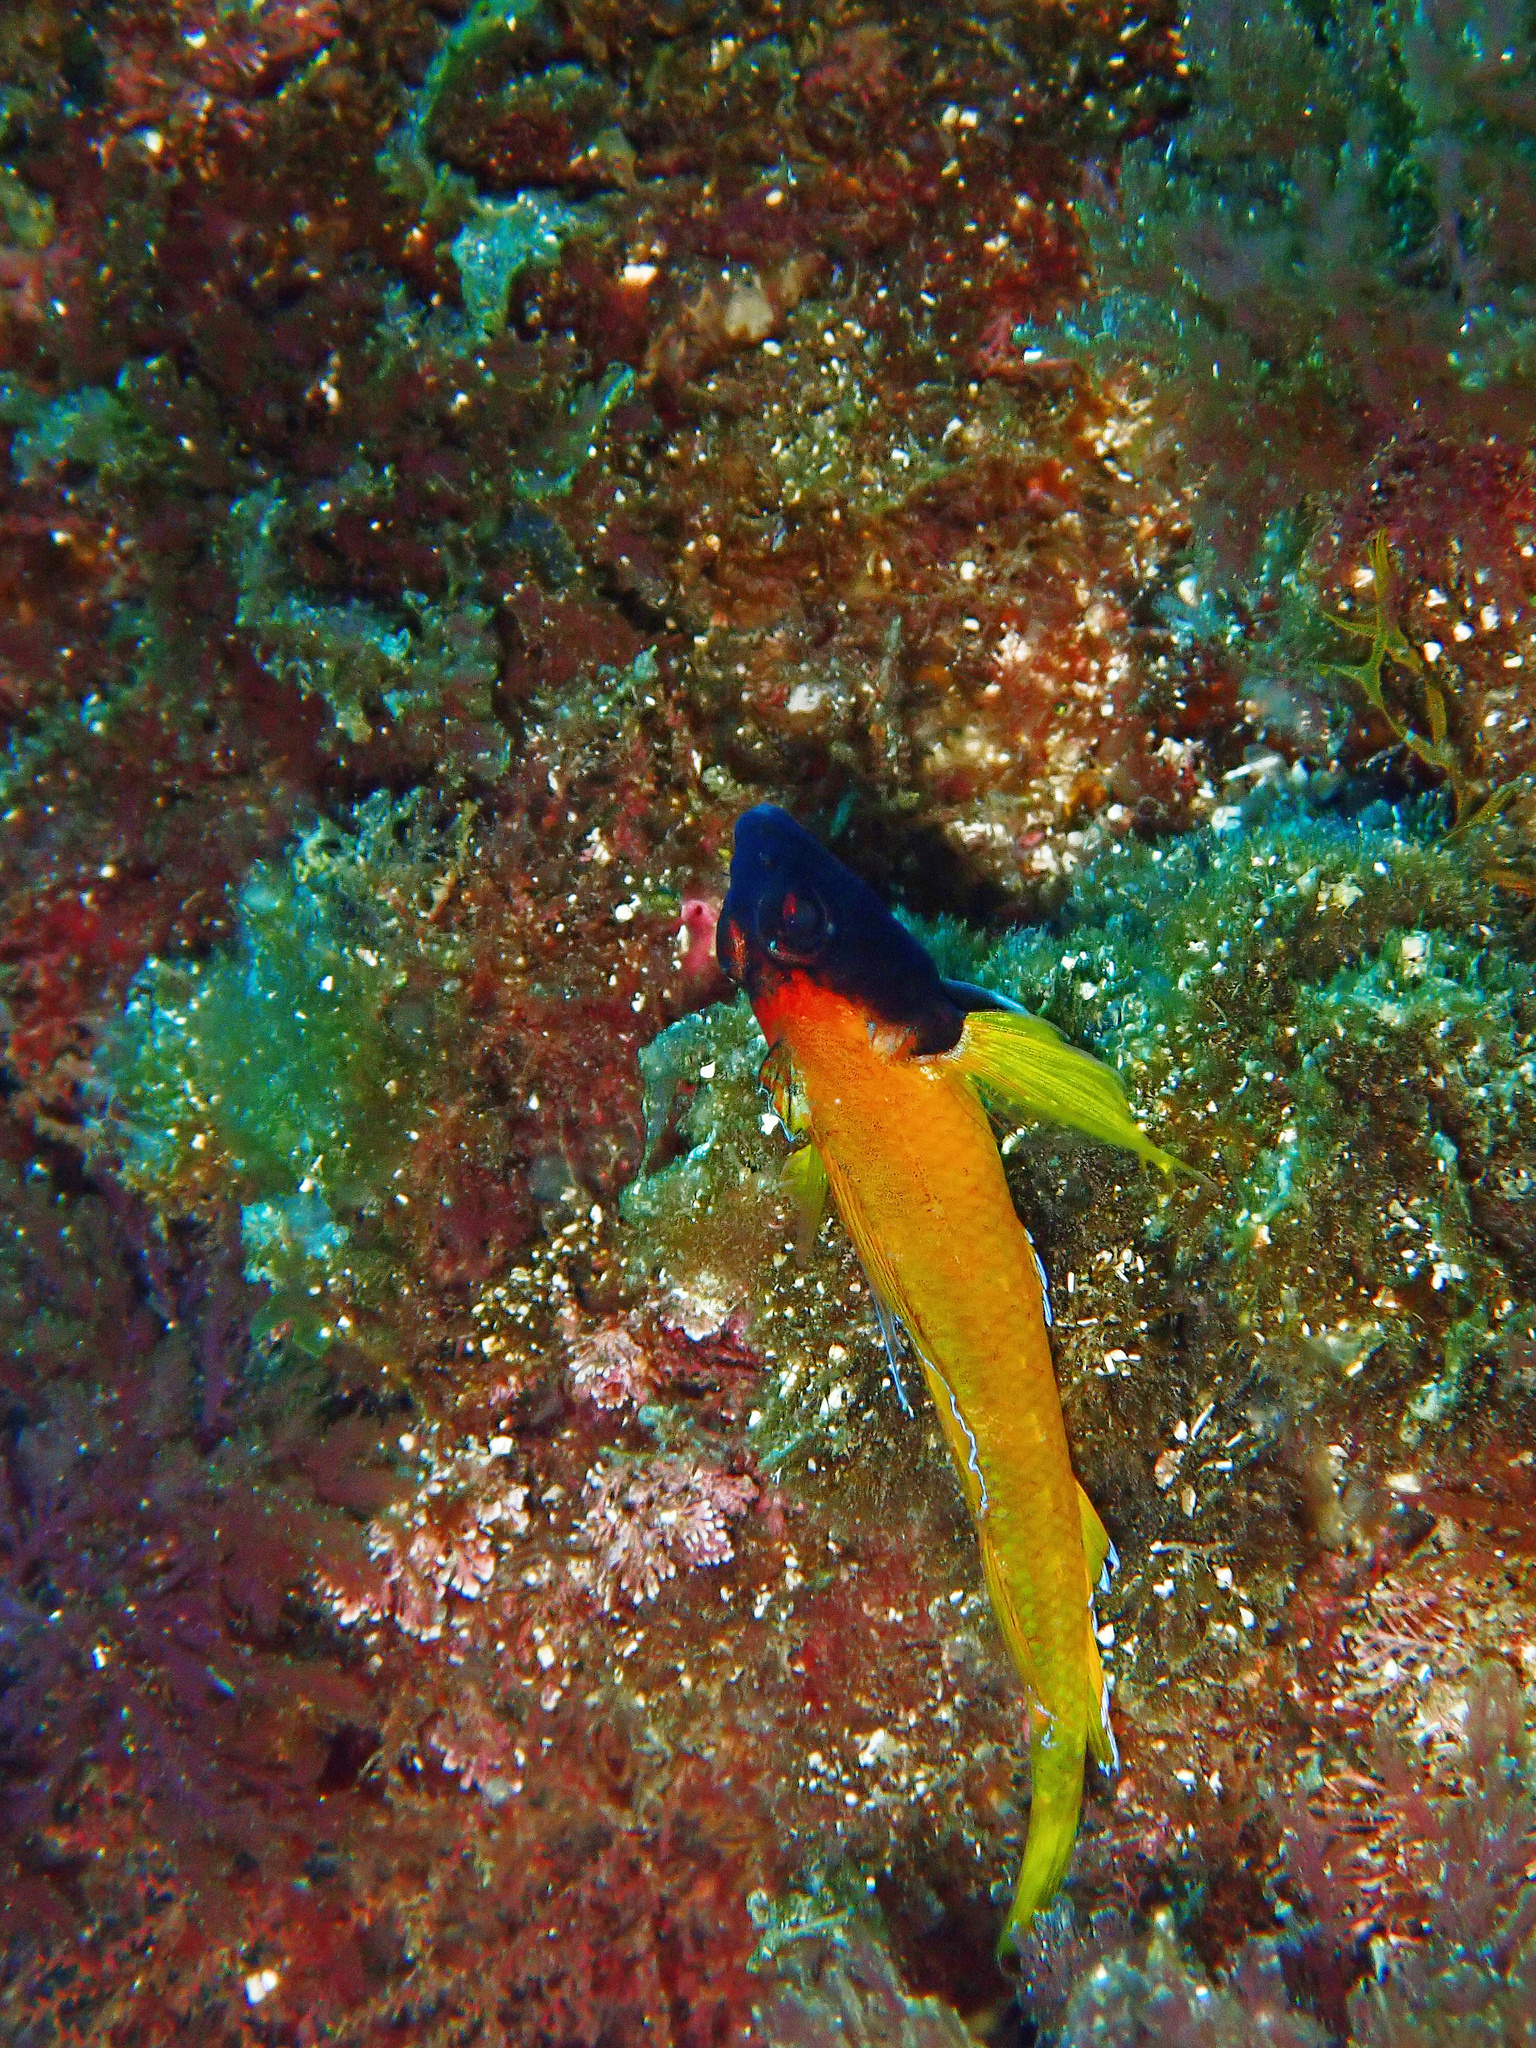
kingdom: Animalia
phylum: Chordata
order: Perciformes
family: Tripterygiidae
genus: Tripterygion
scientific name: Tripterygion delaisi
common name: Black-face blenny
